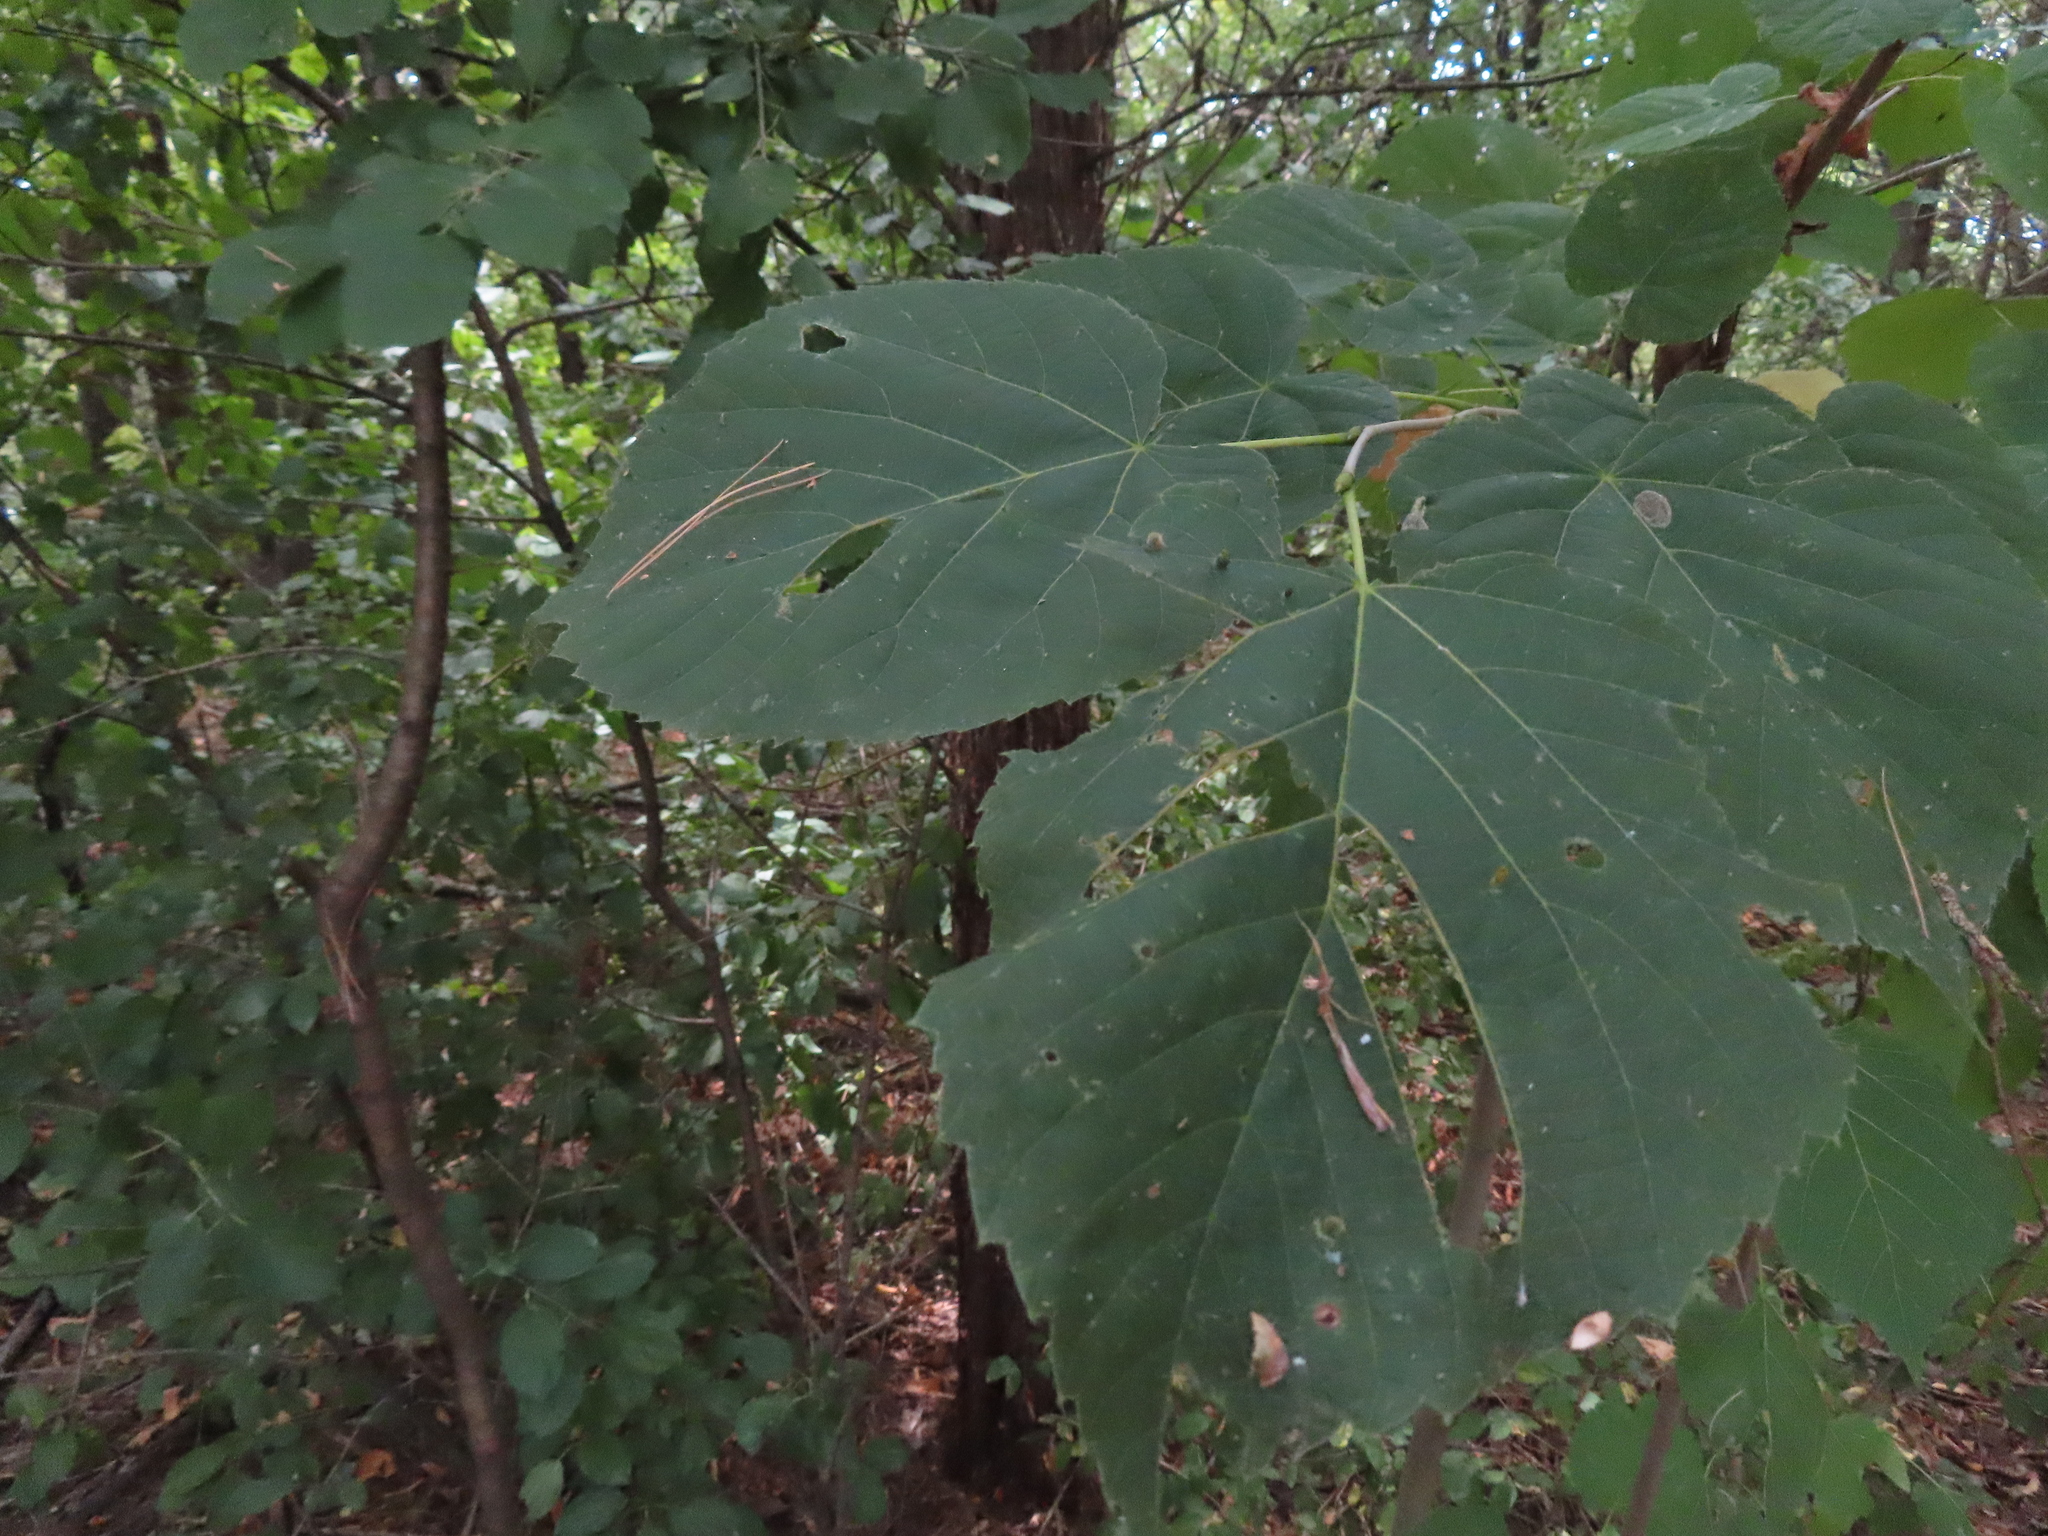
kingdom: Plantae
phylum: Tracheophyta
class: Magnoliopsida
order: Malvales
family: Malvaceae
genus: Tilia
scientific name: Tilia americana
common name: Basswood
